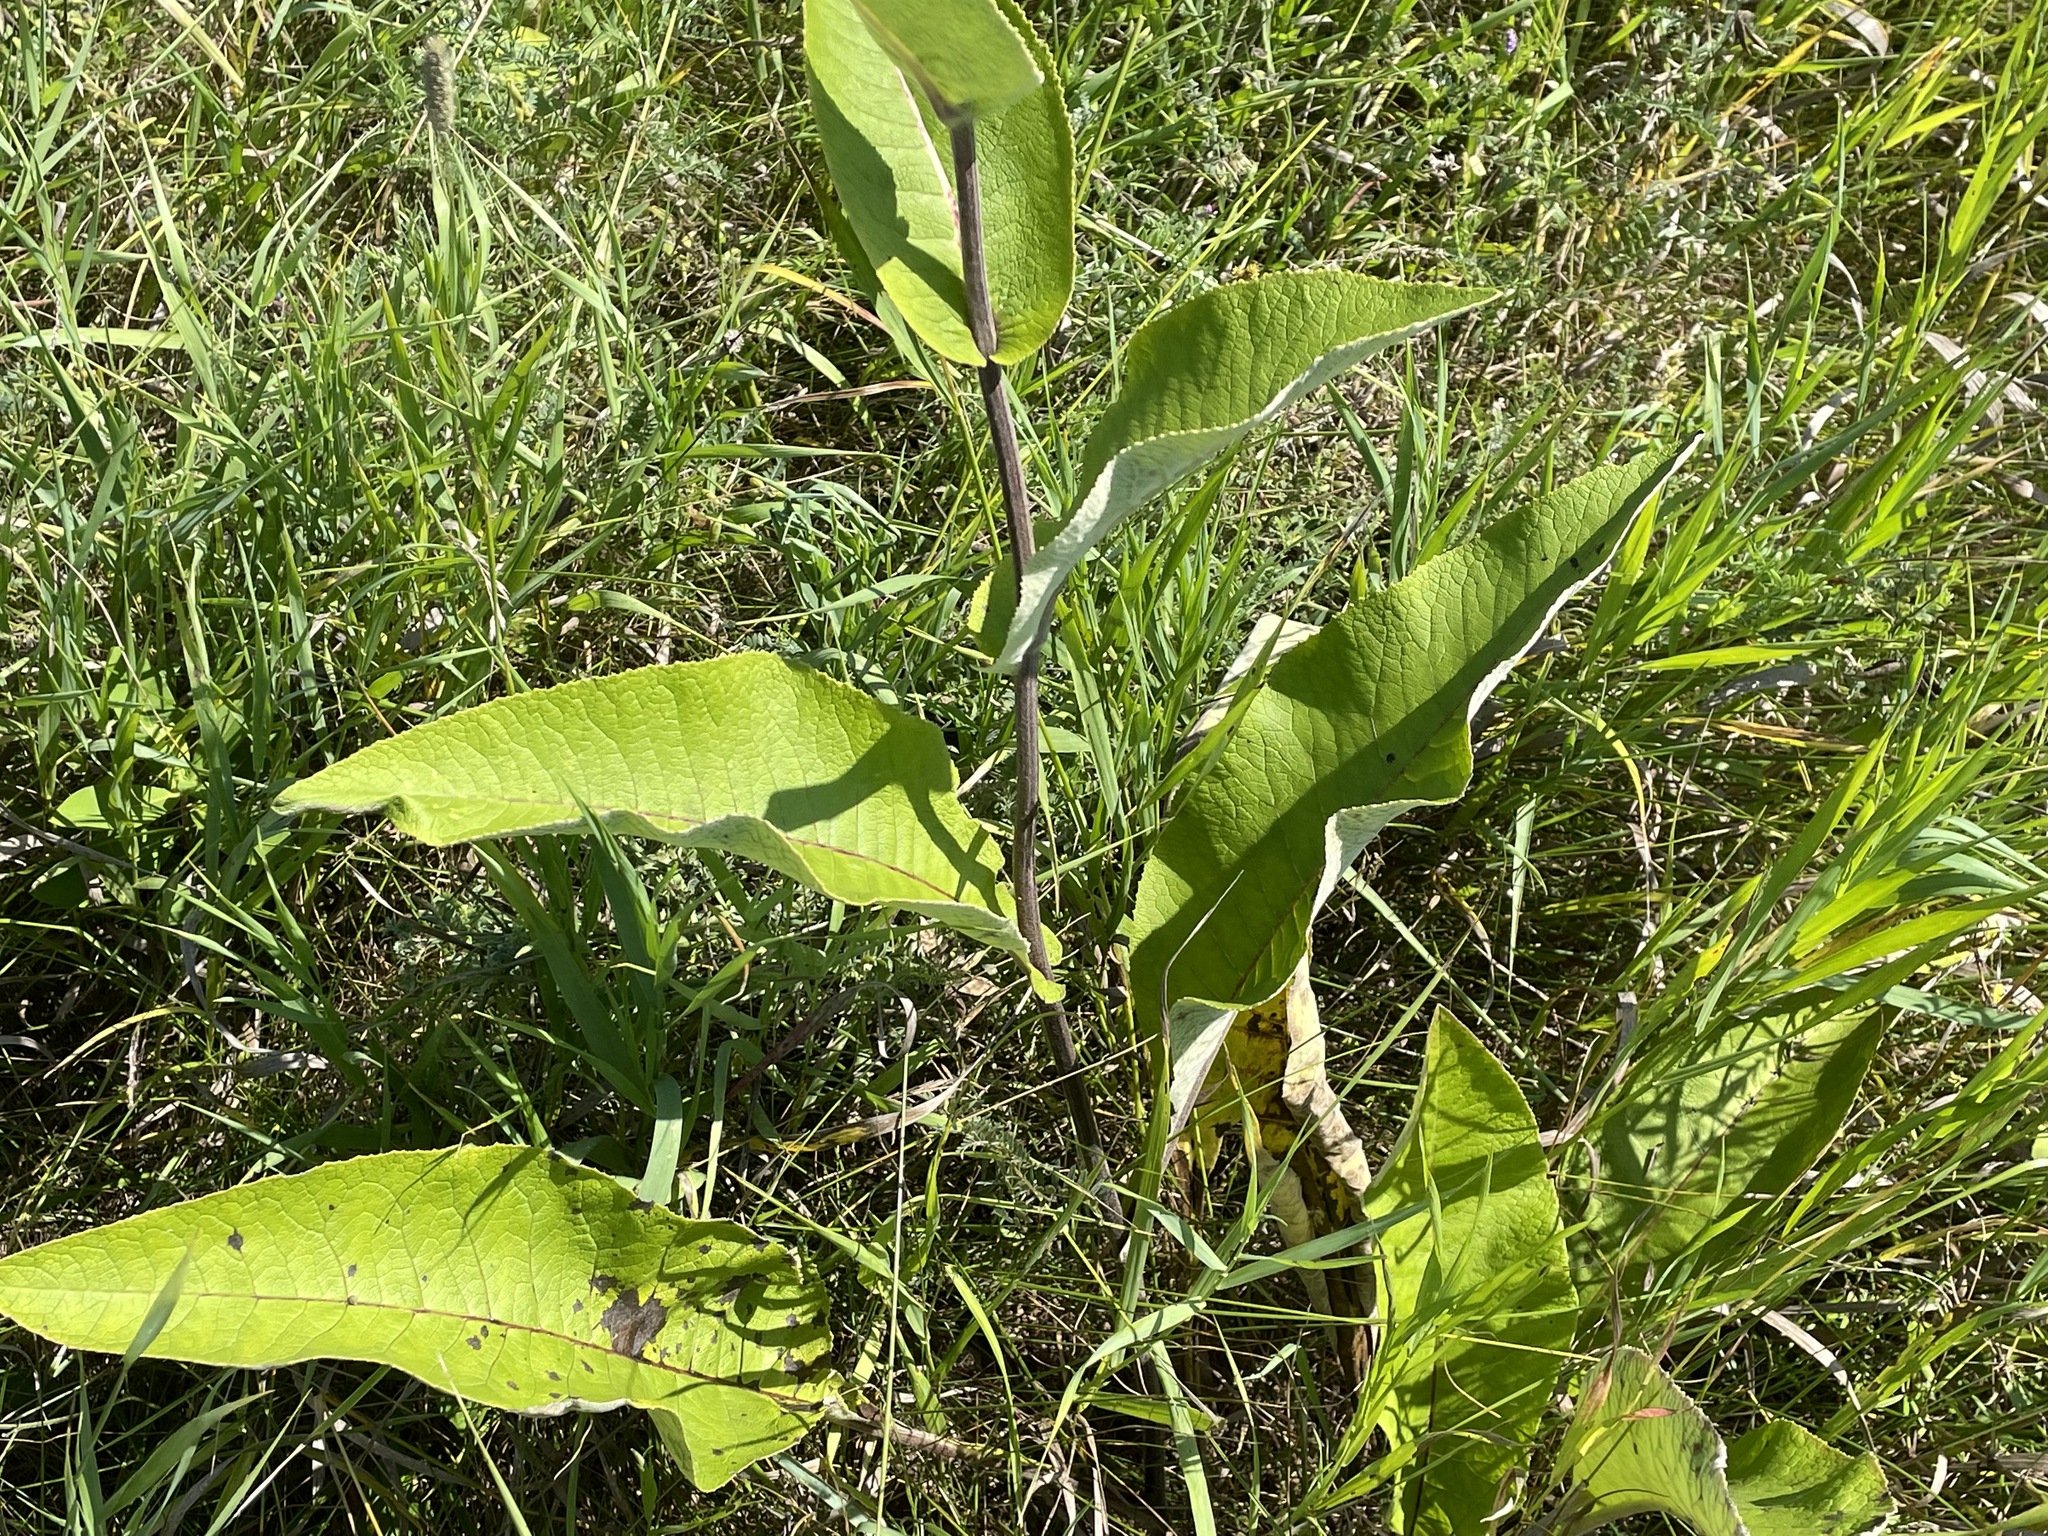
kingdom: Plantae
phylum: Tracheophyta
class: Magnoliopsida
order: Asterales
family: Asteraceae
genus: Inula
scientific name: Inula helenium
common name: Elecampane
